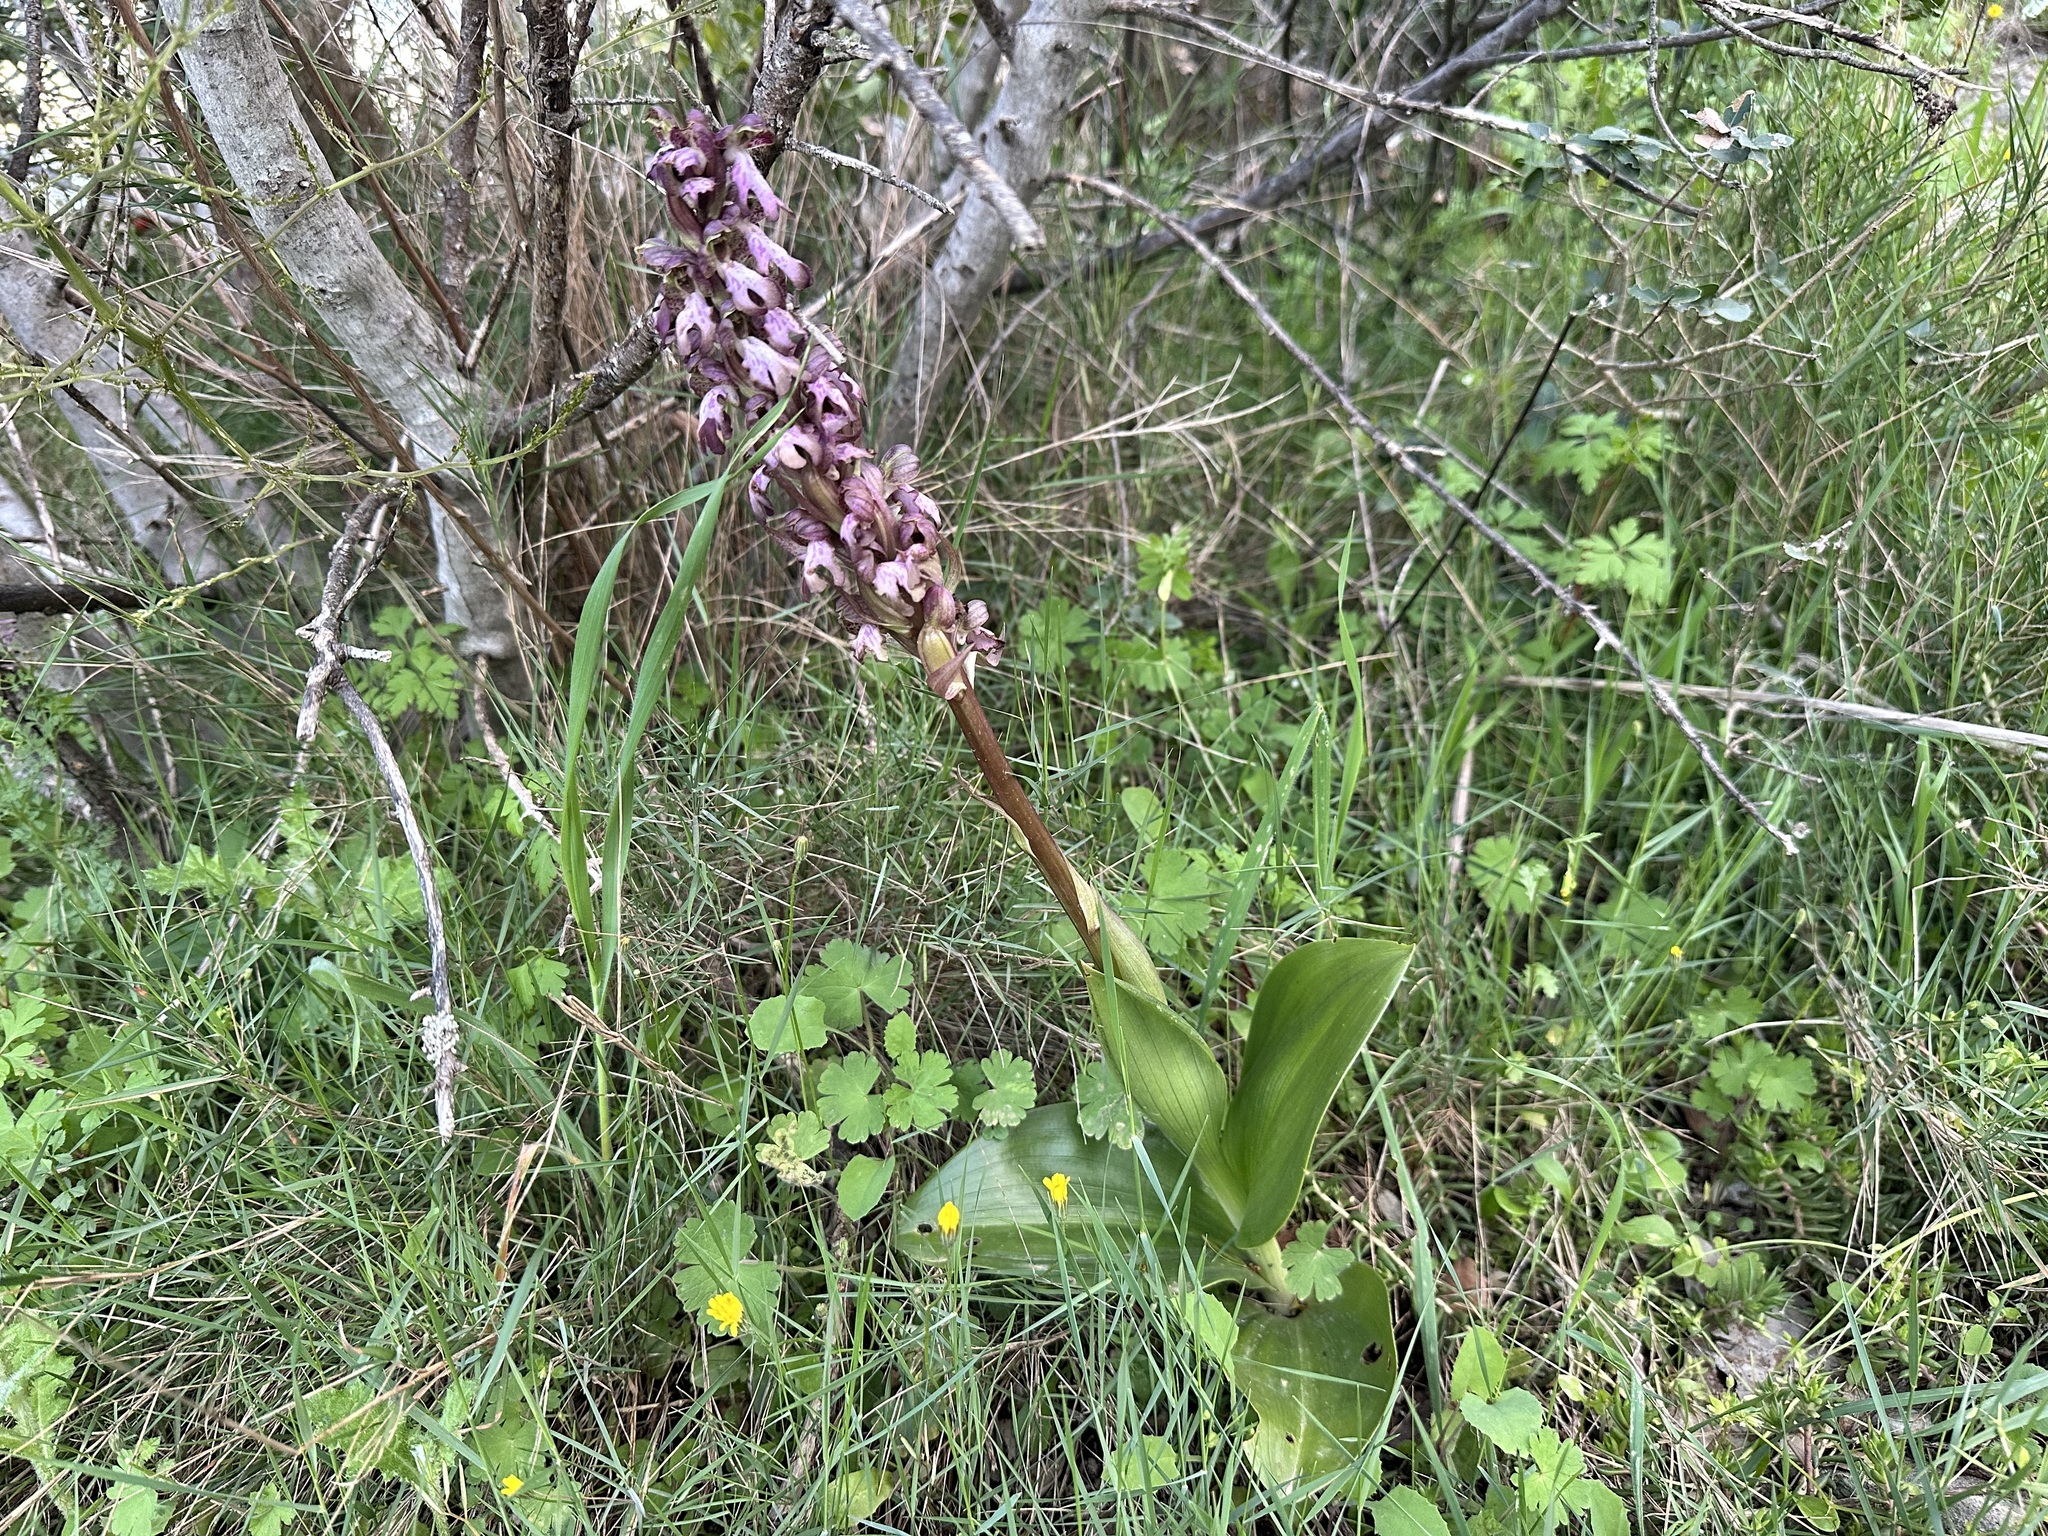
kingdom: Plantae
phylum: Tracheophyta
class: Liliopsida
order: Asparagales
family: Orchidaceae
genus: Himantoglossum
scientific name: Himantoglossum robertianum
